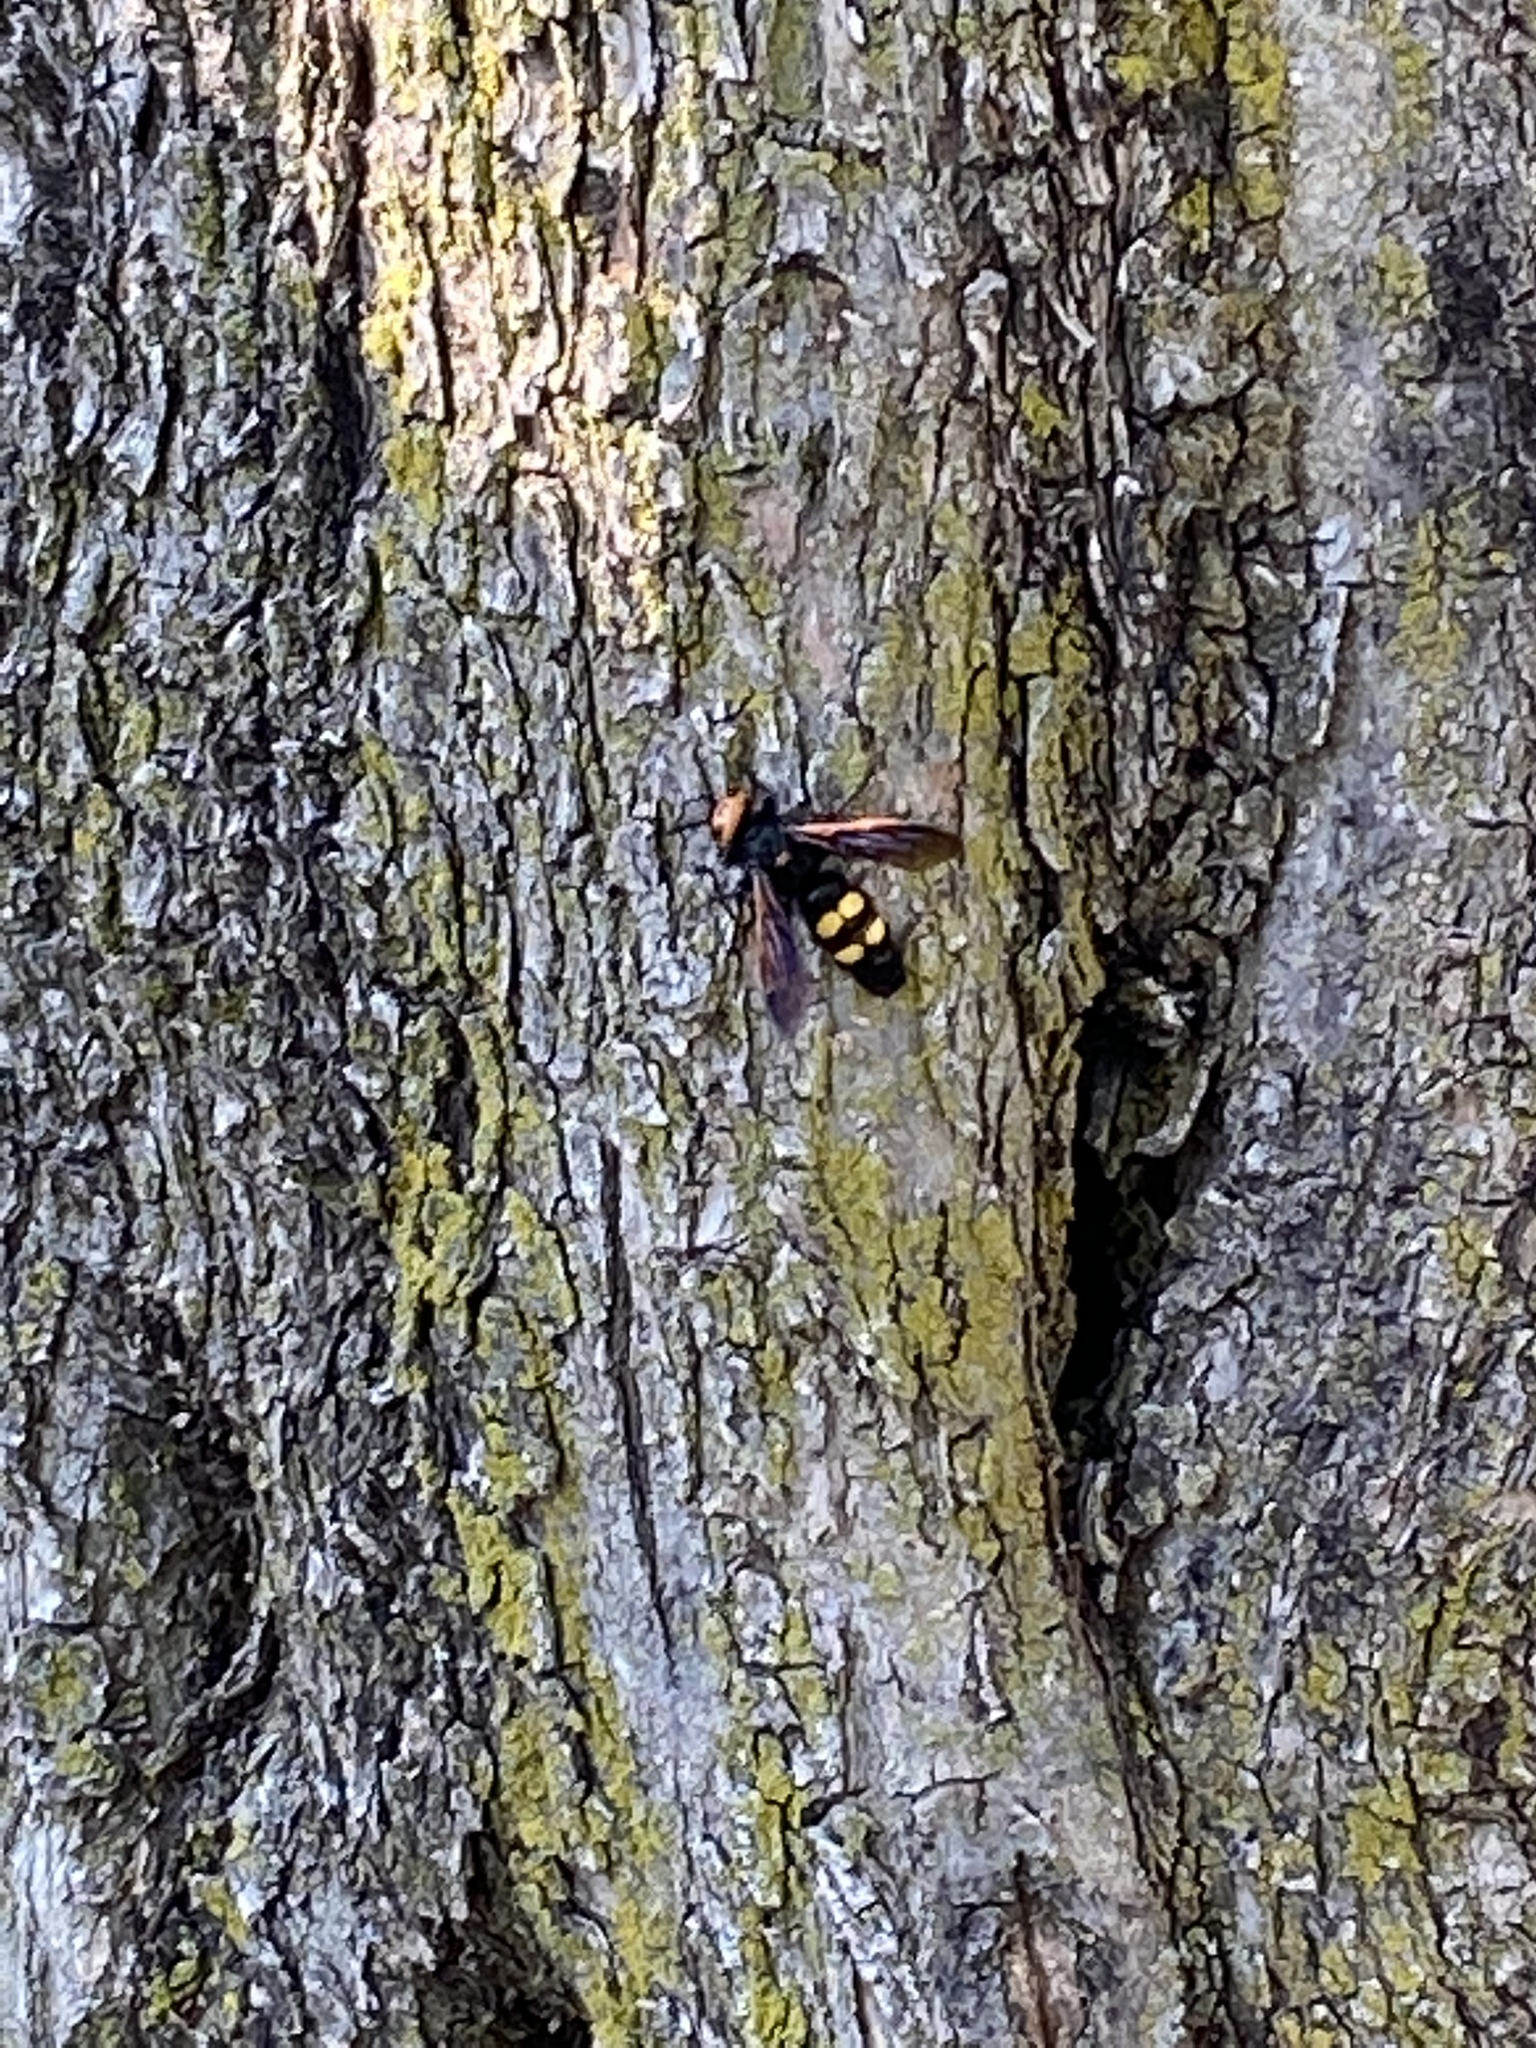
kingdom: Animalia
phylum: Arthropoda
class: Insecta
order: Hymenoptera
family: Scoliidae
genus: Megascolia
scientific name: Megascolia maculata
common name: Mammoth wasp
